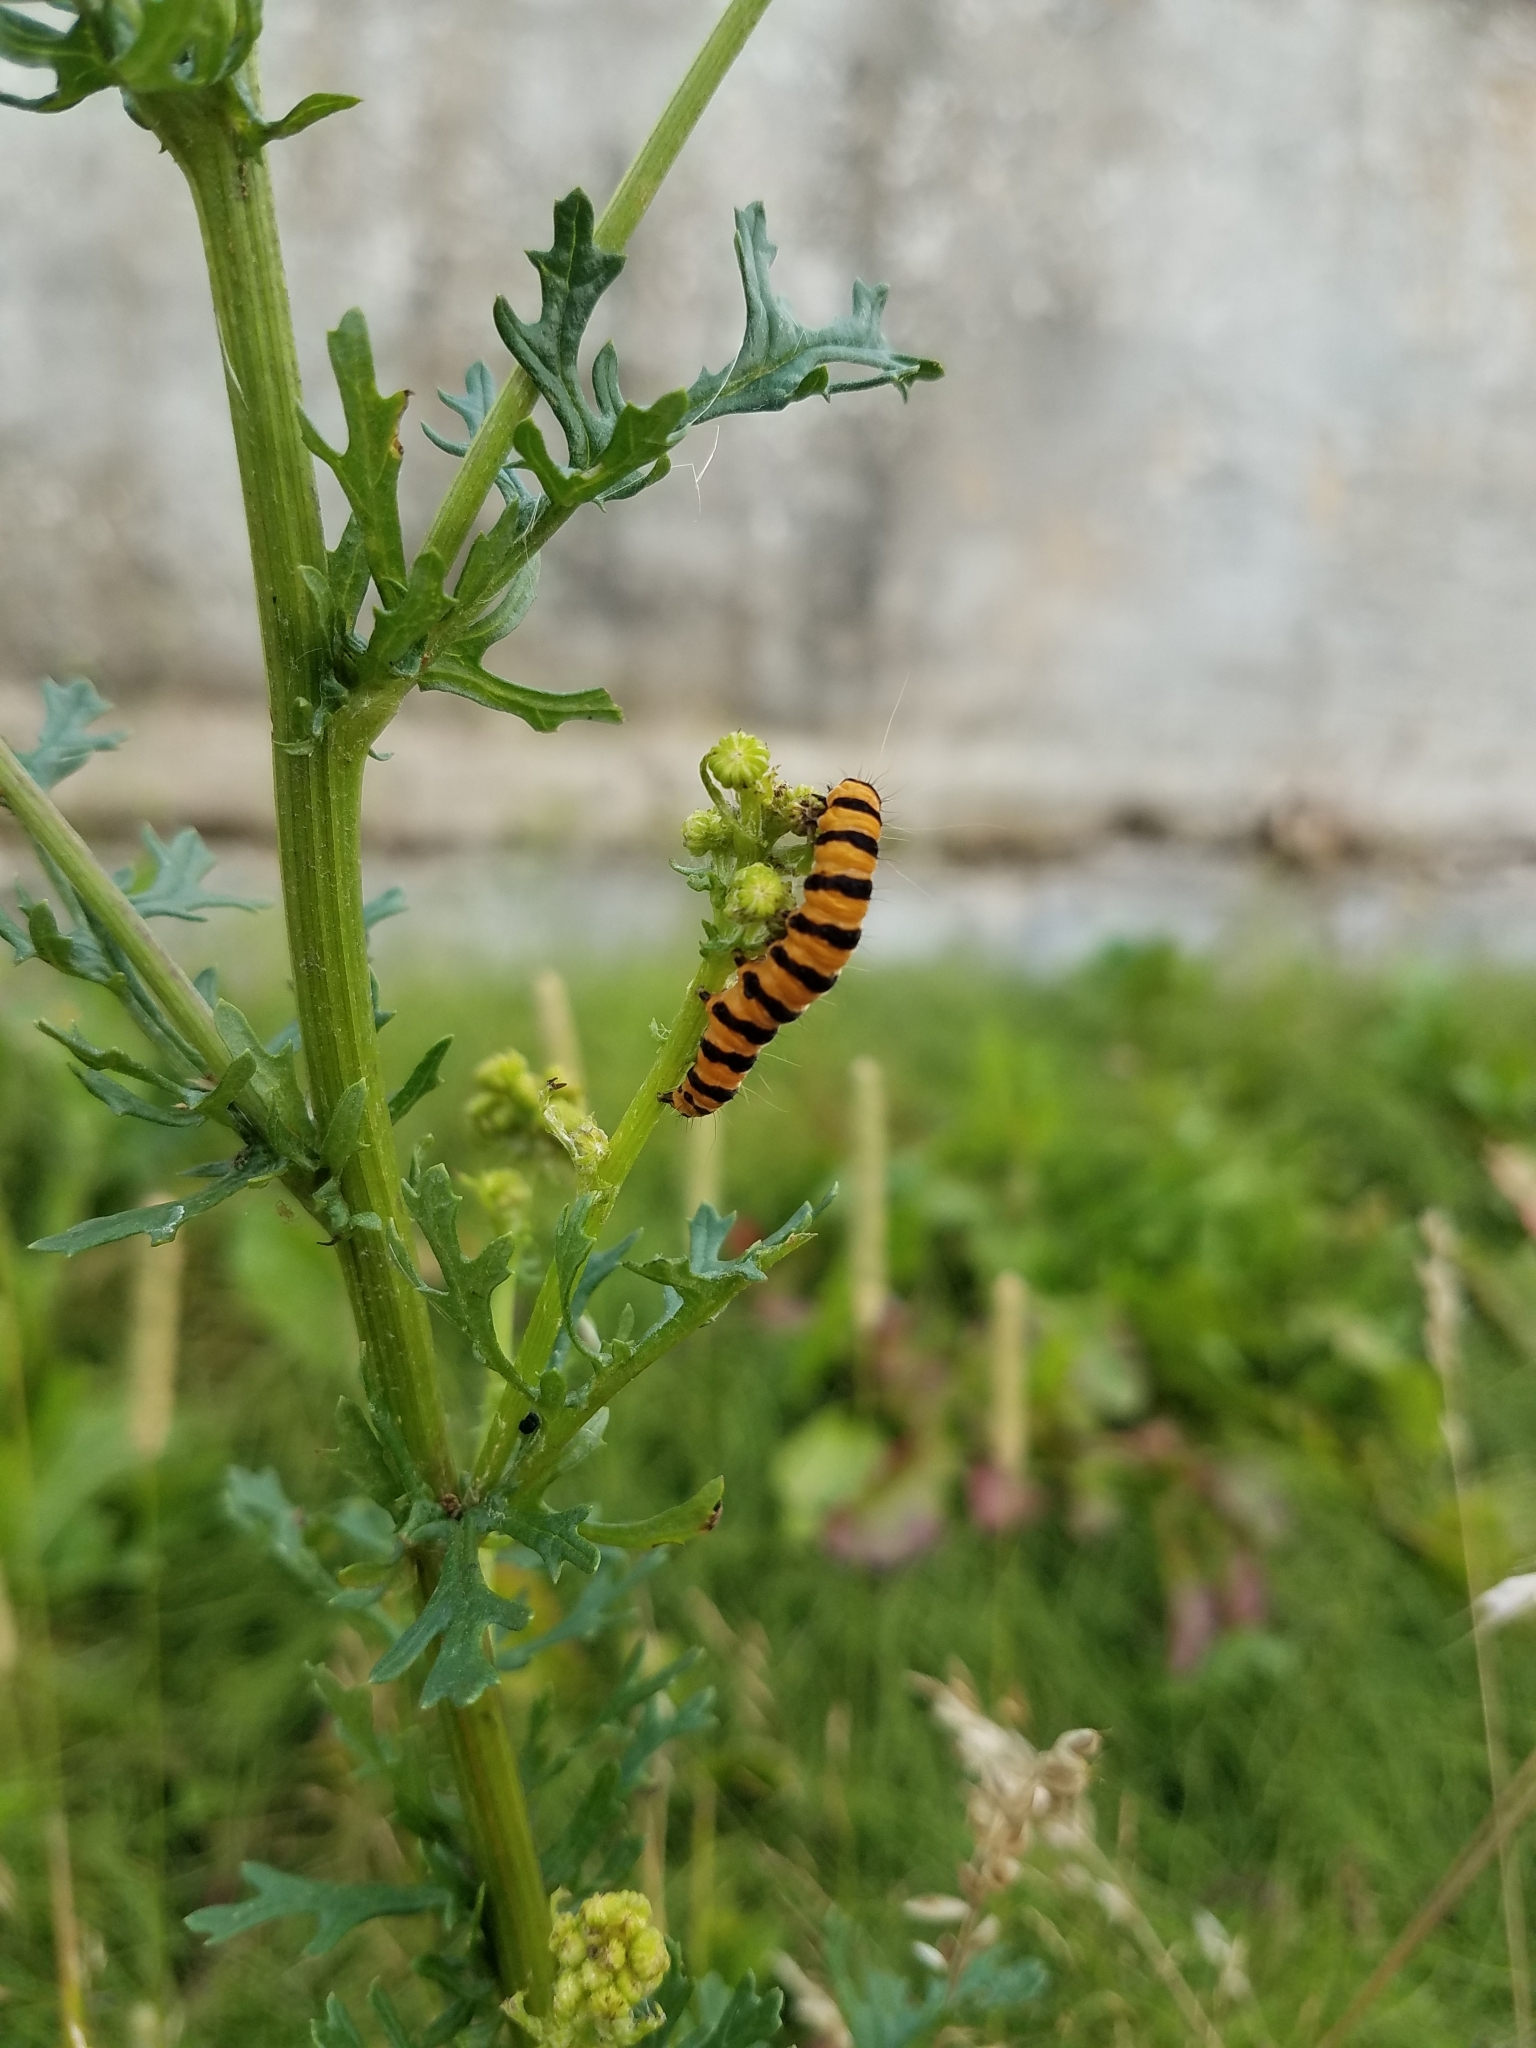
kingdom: Animalia
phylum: Arthropoda
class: Insecta
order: Lepidoptera
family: Erebidae
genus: Tyria
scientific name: Tyria jacobaeae
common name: Cinnabar
